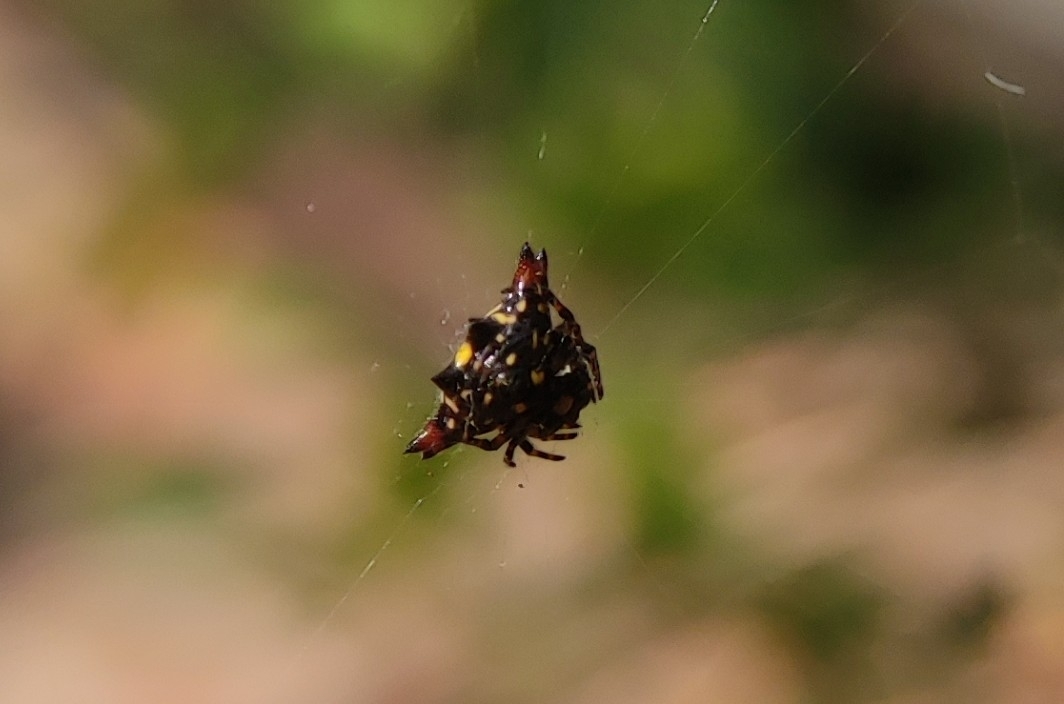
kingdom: Animalia
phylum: Arthropoda
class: Arachnida
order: Araneae
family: Araneidae
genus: Gasteracantha
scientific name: Gasteracantha geminata
